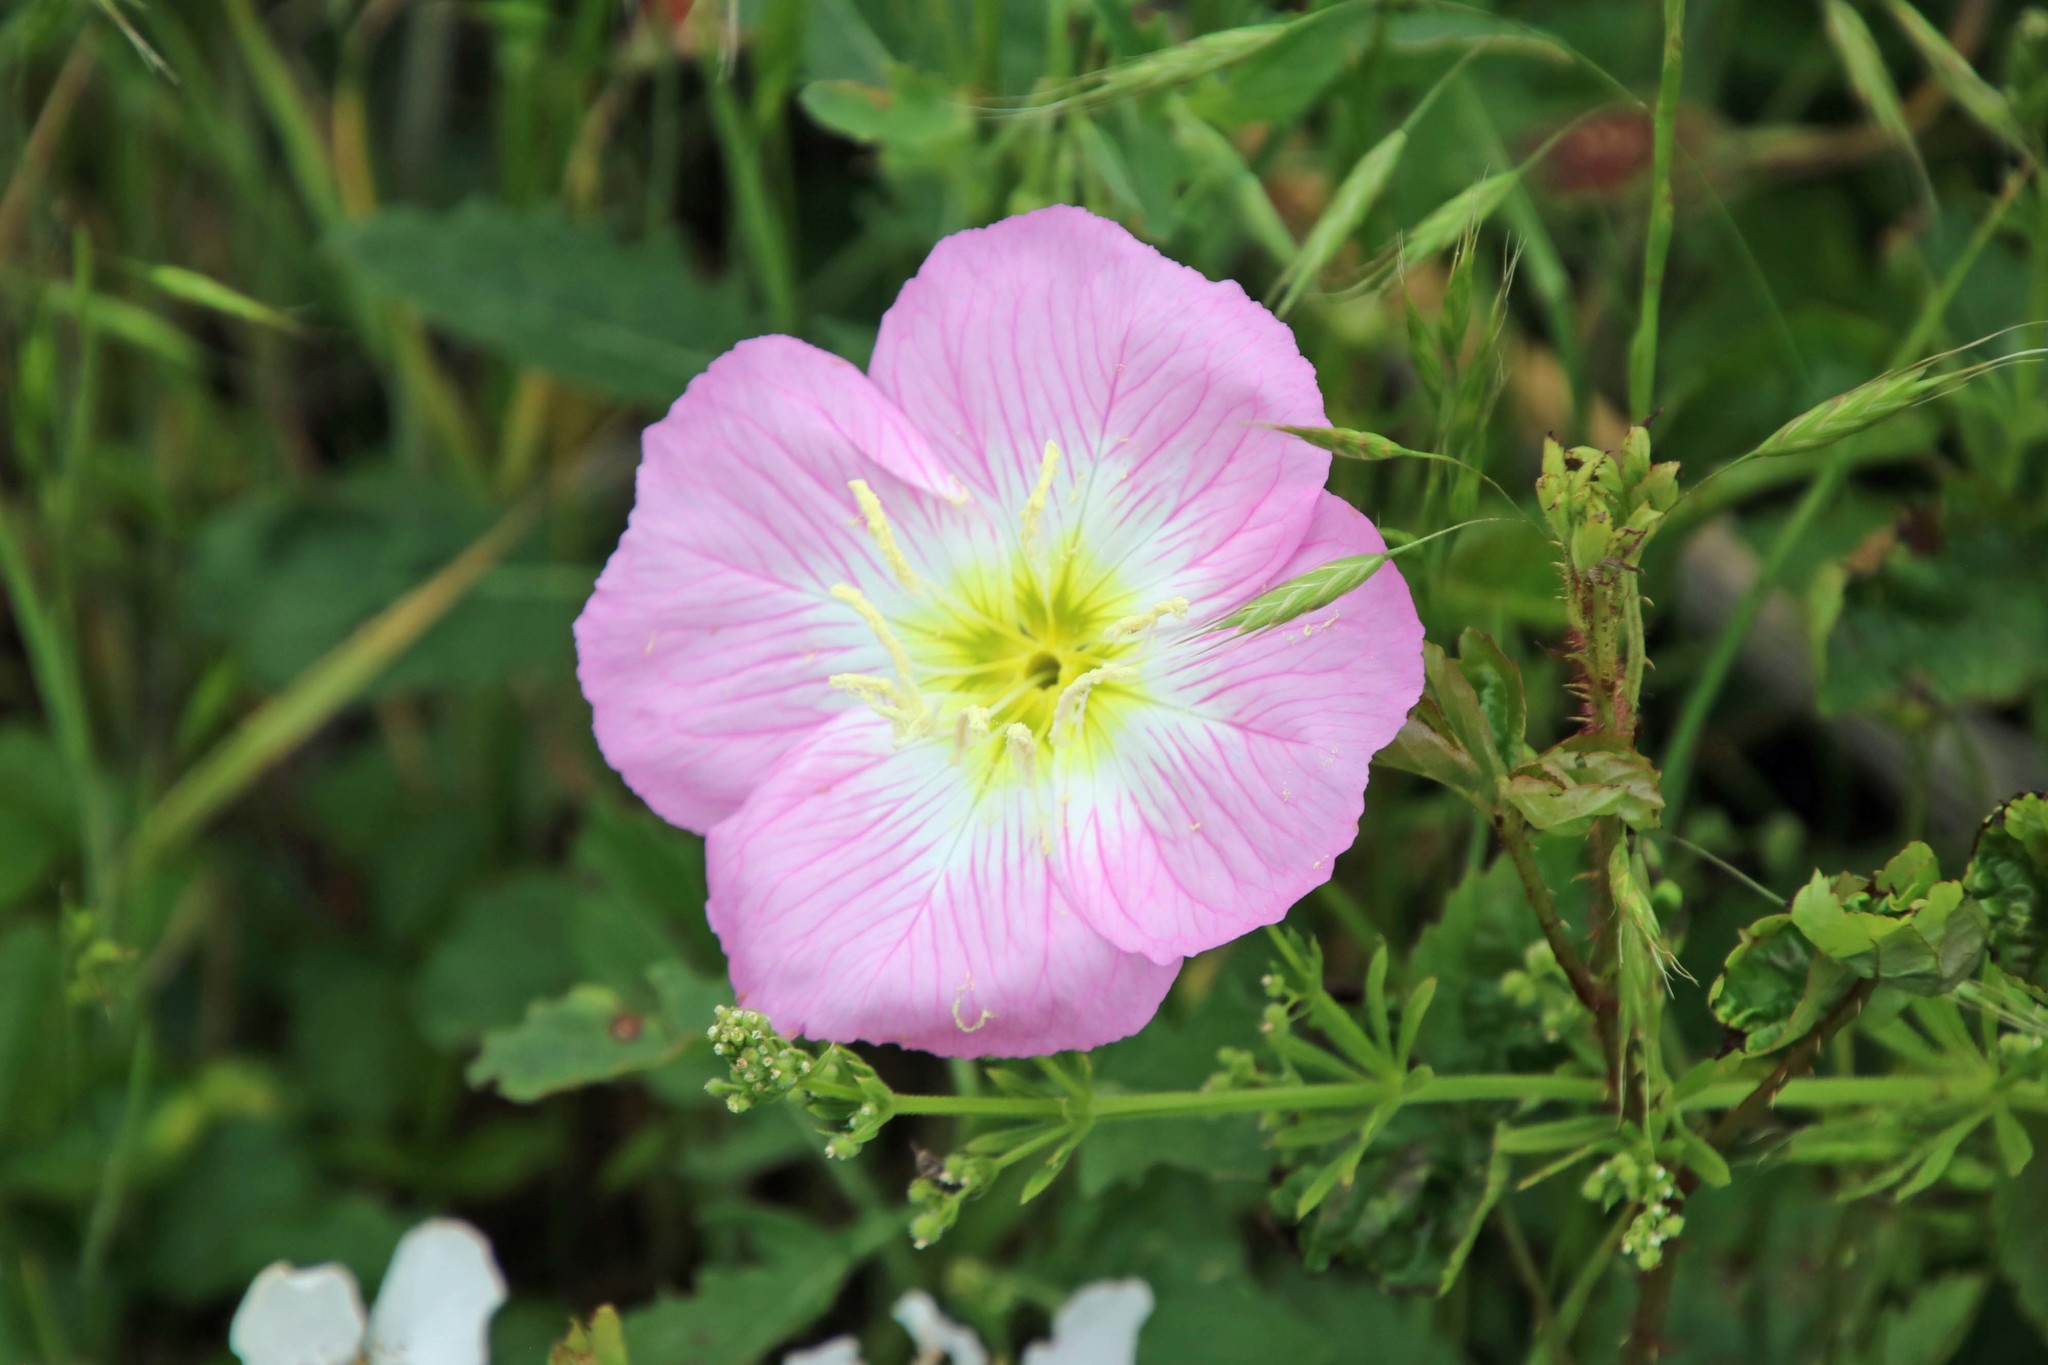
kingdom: Plantae
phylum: Tracheophyta
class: Magnoliopsida
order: Myrtales
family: Onagraceae
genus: Oenothera
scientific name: Oenothera speciosa
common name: White evening-primrose
